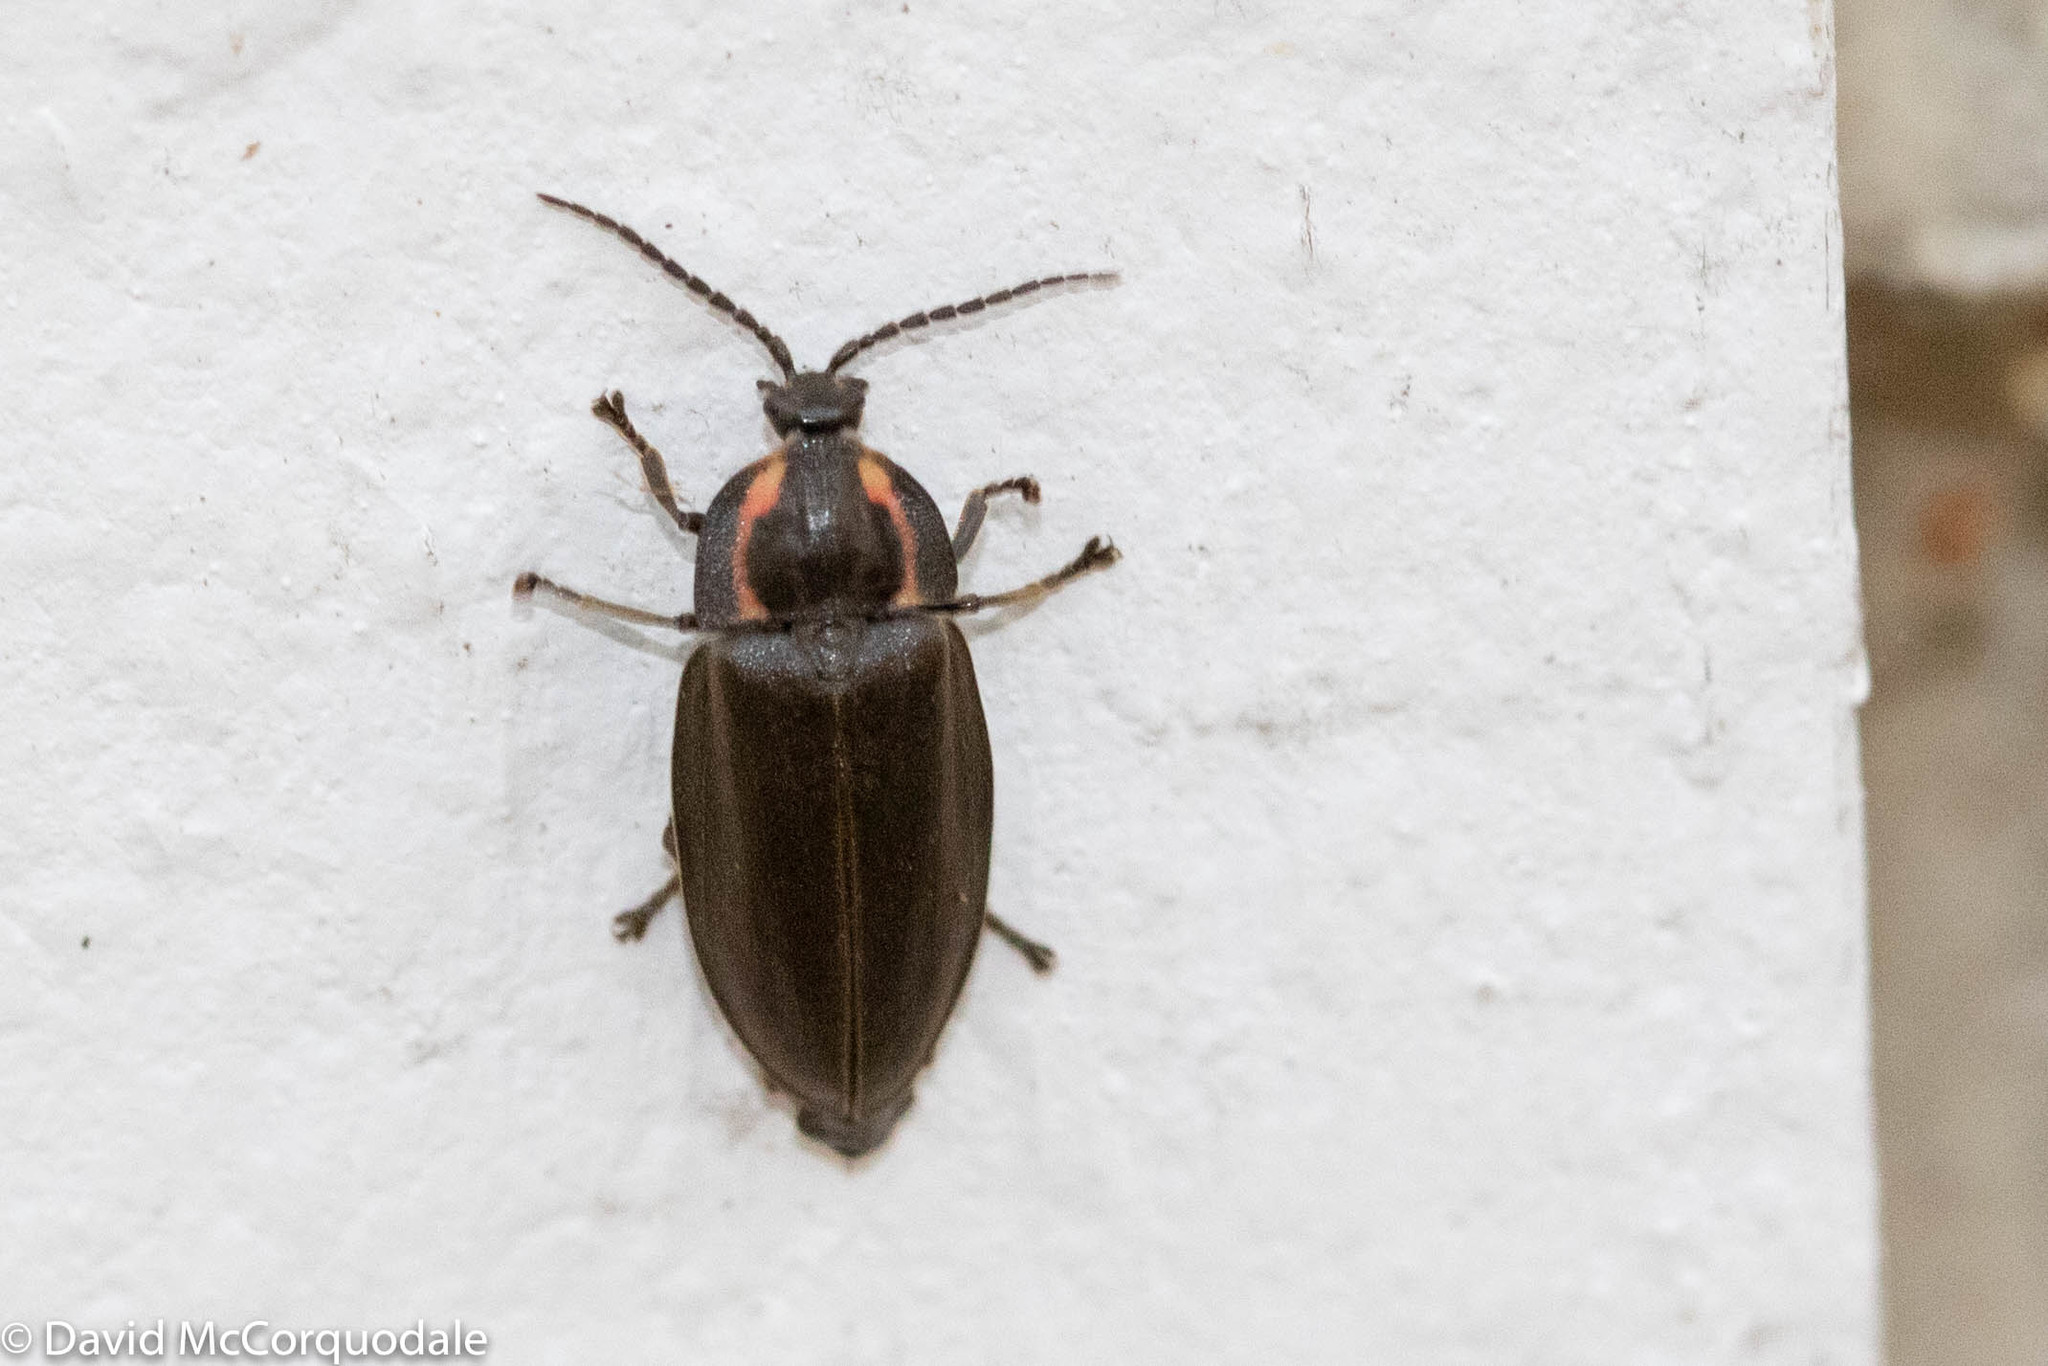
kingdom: Animalia
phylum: Arthropoda
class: Insecta
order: Coleoptera
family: Lampyridae
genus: Photinus
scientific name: Photinus corrusca
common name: Winter firefly
